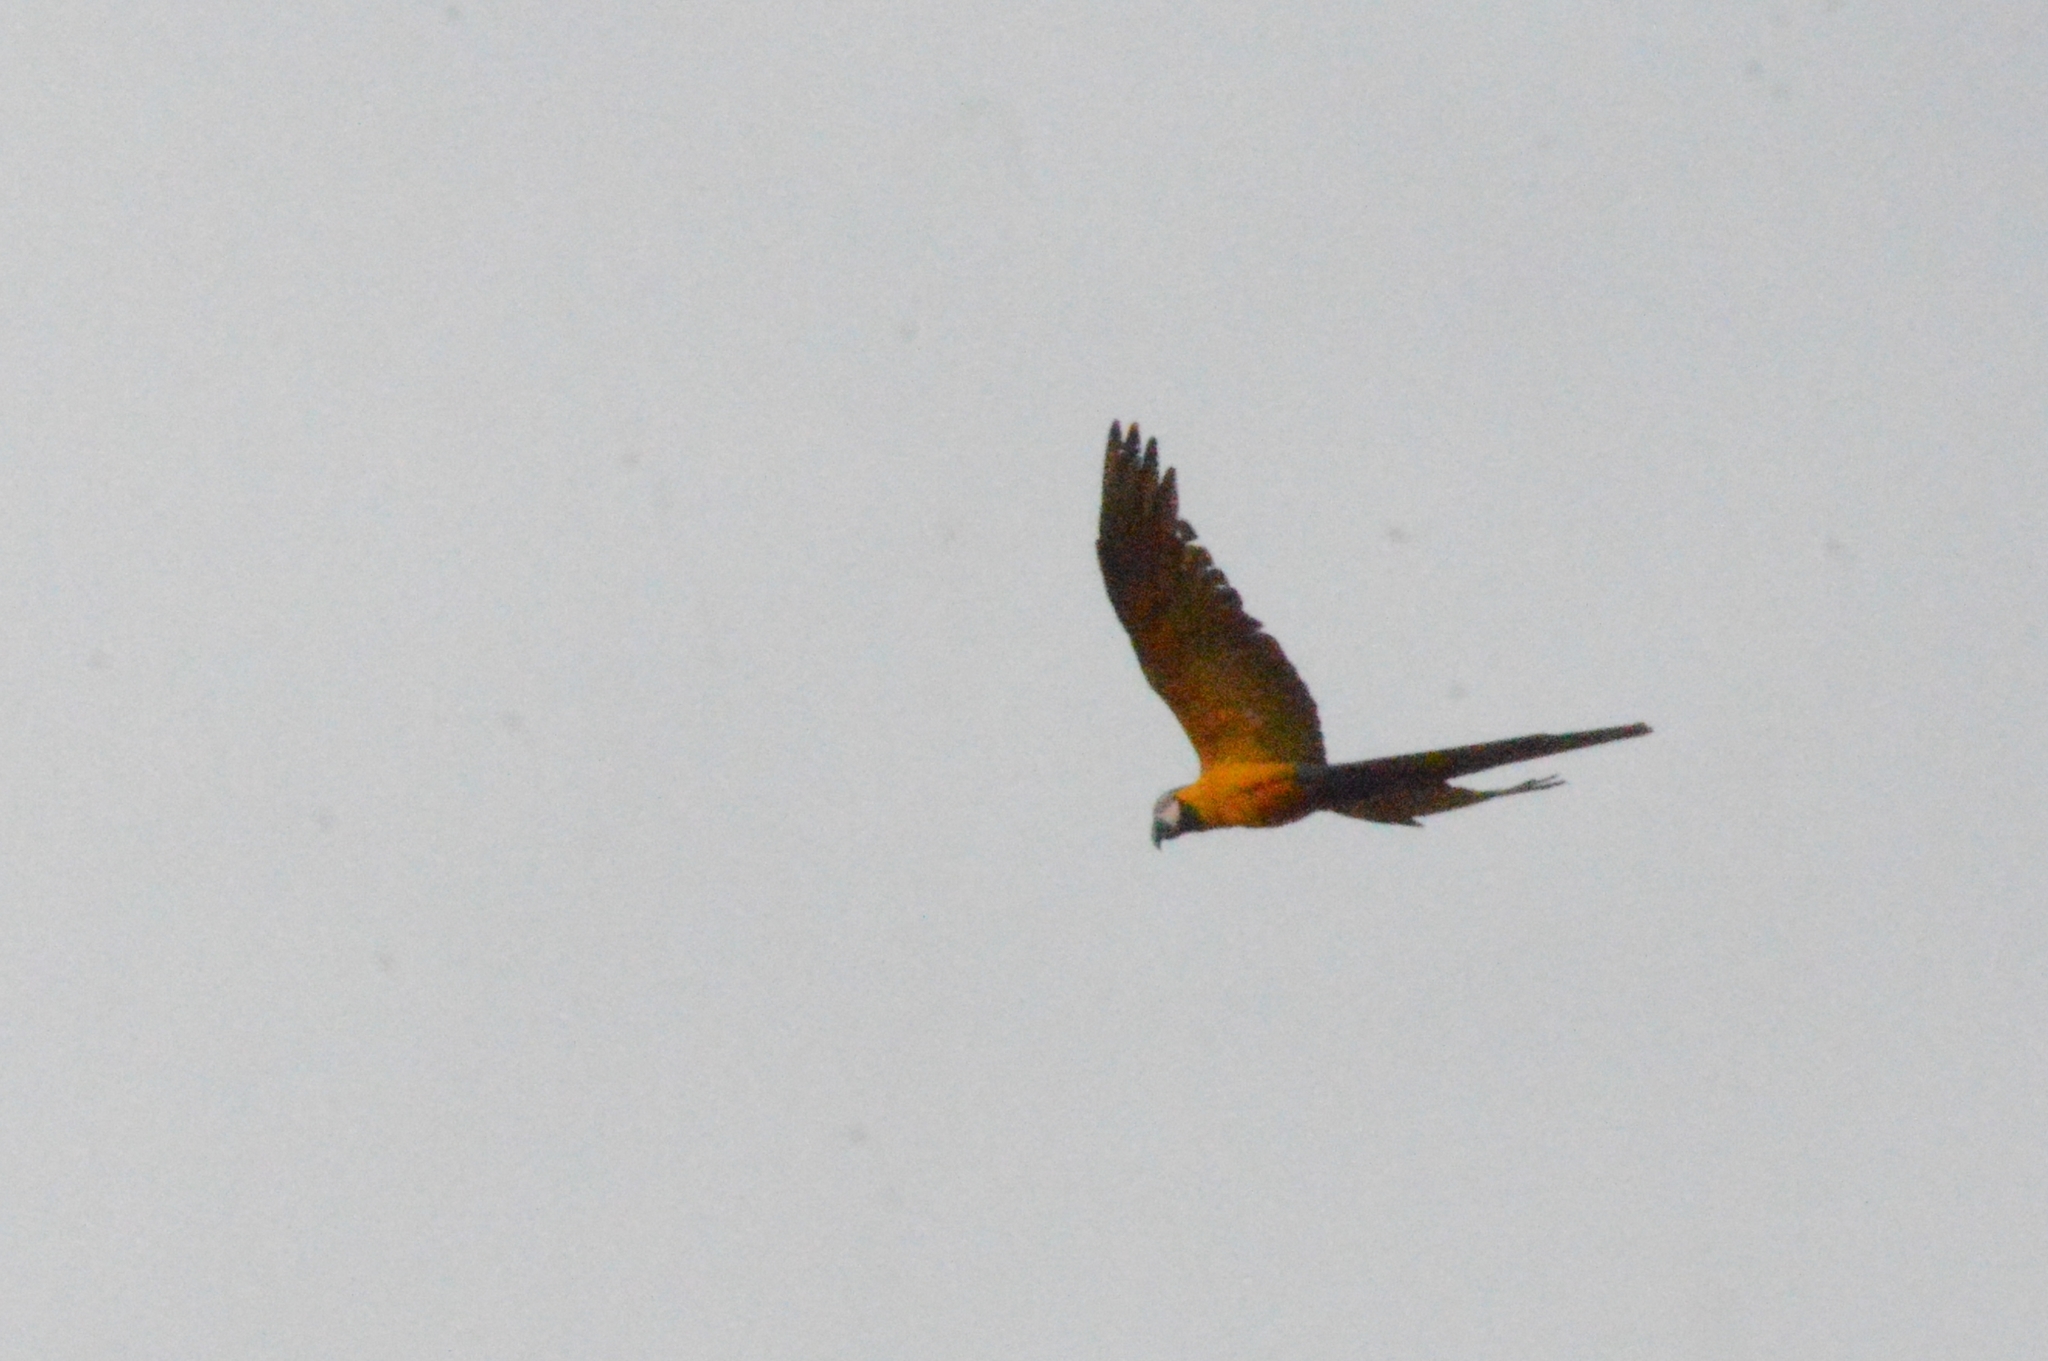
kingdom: Animalia
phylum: Chordata
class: Aves
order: Psittaciformes
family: Psittacidae
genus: Ara
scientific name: Ara ararauna
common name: Blue-and-yellow macaw
